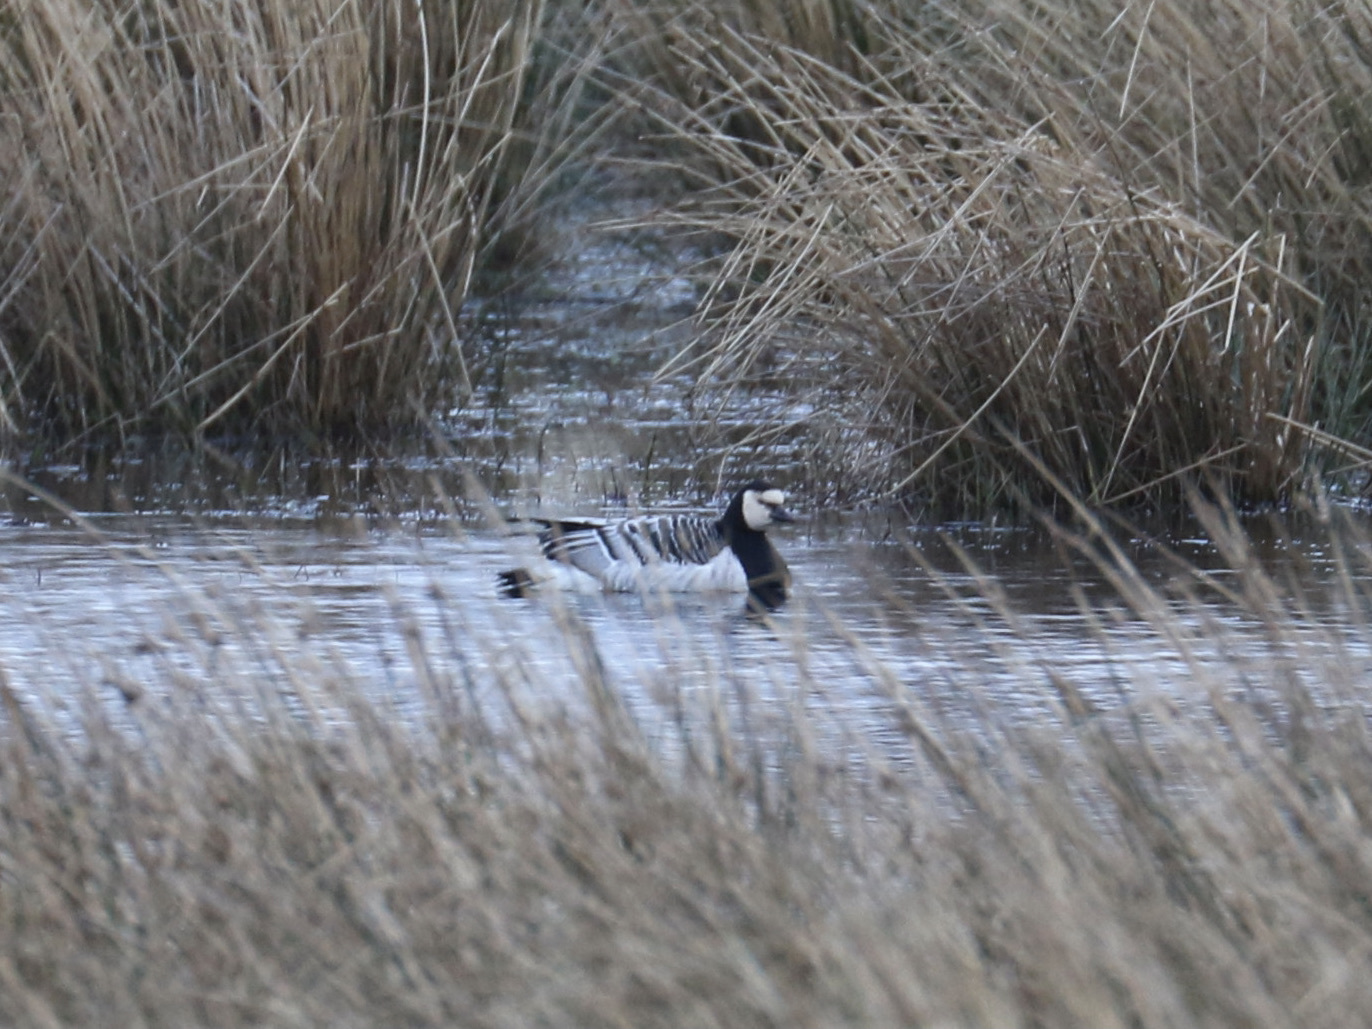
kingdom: Animalia
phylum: Chordata
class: Aves
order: Anseriformes
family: Anatidae
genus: Branta
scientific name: Branta leucopsis
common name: Barnacle goose
